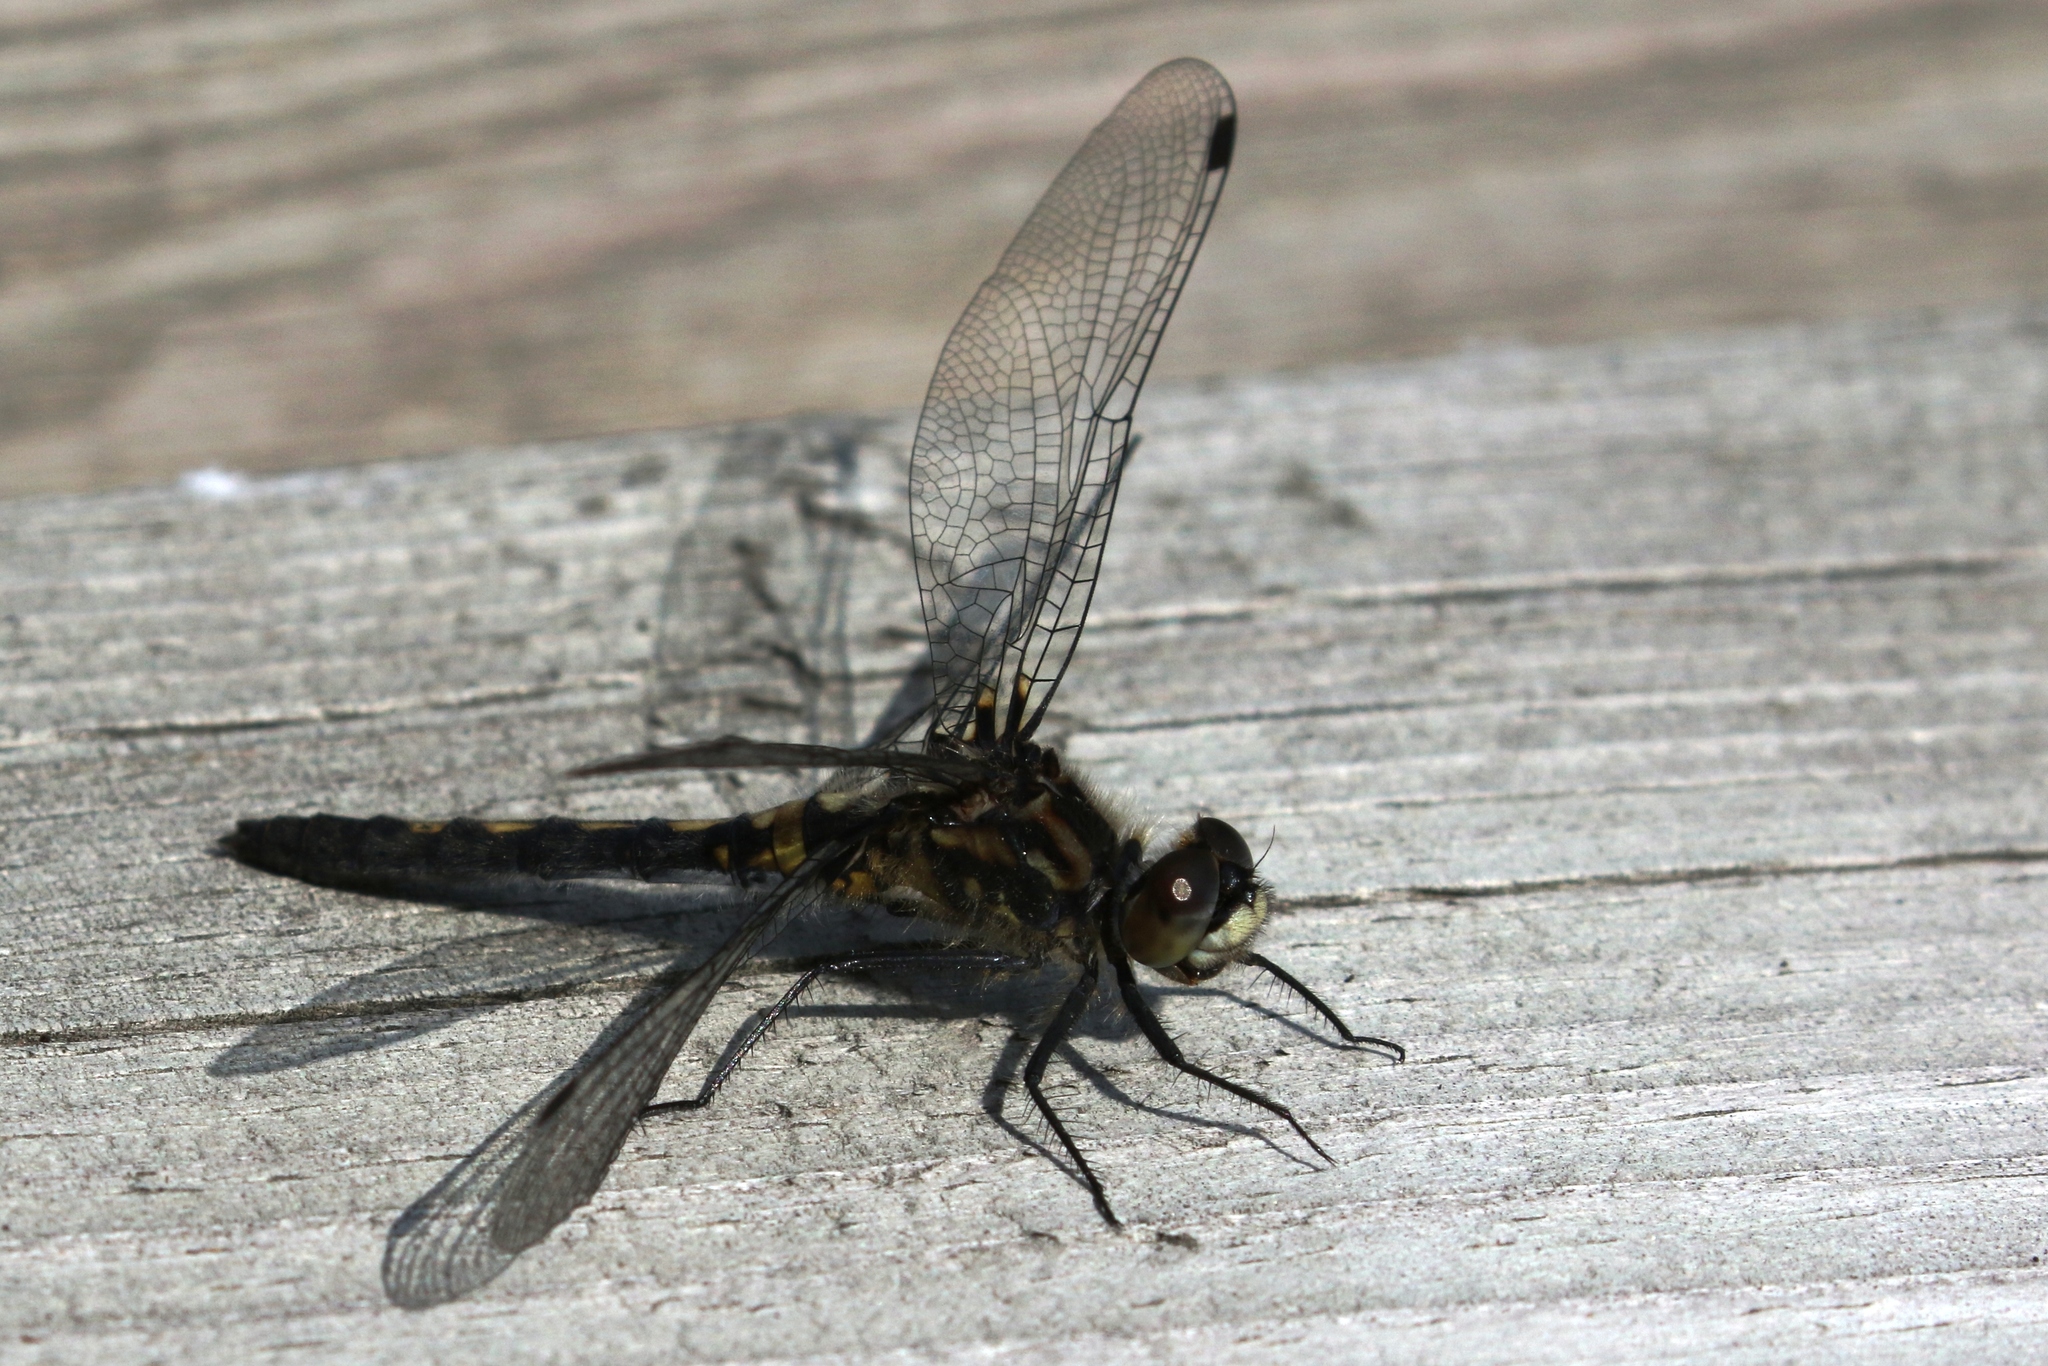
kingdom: Animalia
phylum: Arthropoda
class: Insecta
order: Odonata
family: Libellulidae
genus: Leucorrhinia
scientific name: Leucorrhinia proxima
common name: Belted whiteface
